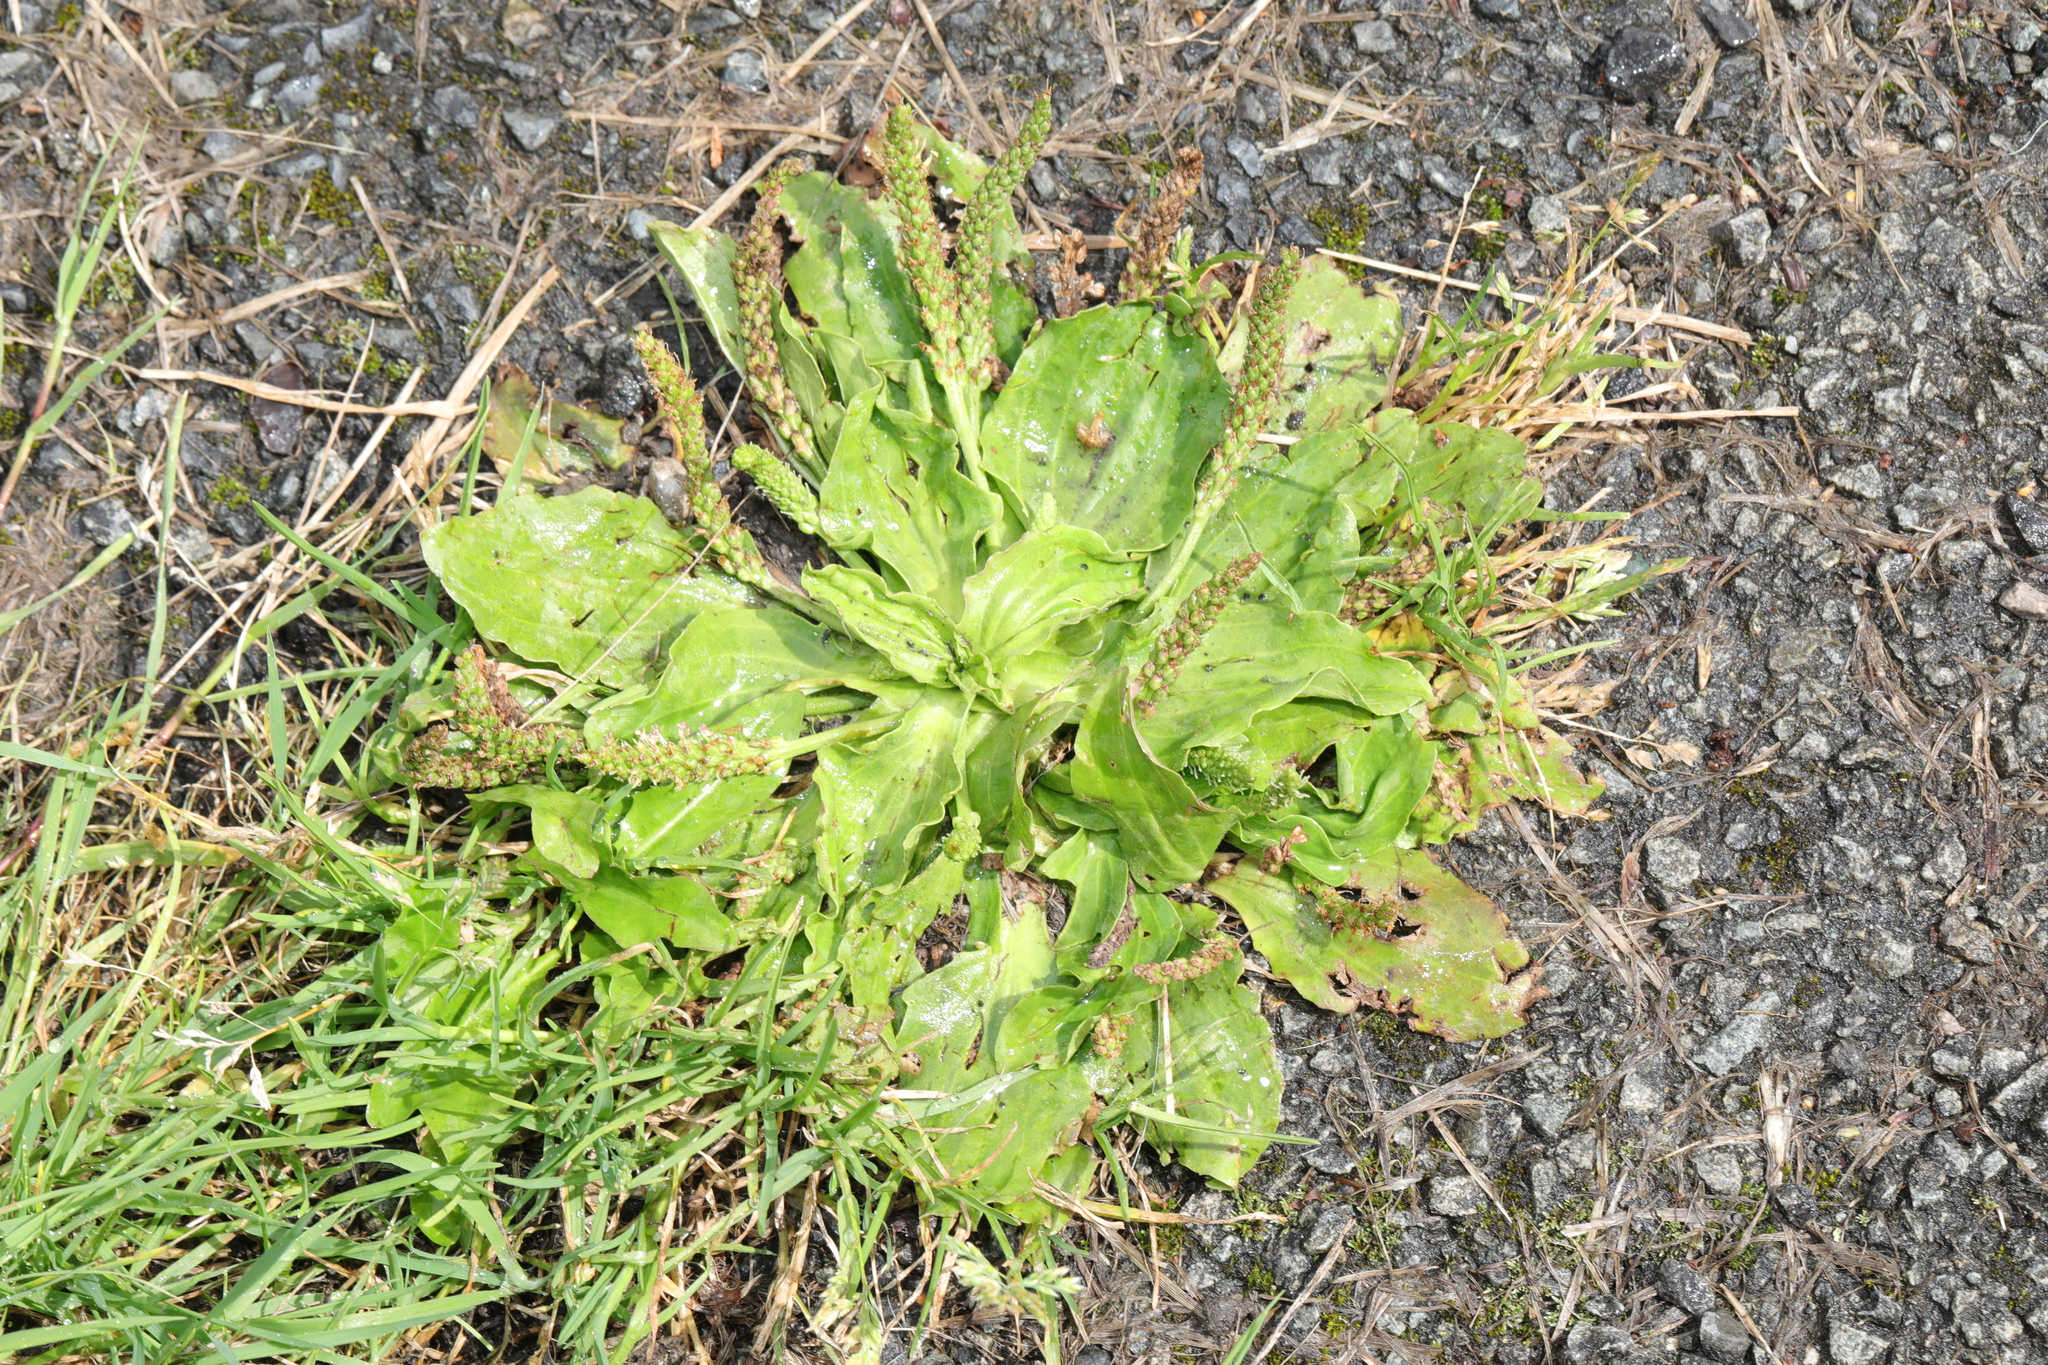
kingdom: Plantae
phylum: Tracheophyta
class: Magnoliopsida
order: Lamiales
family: Plantaginaceae
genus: Plantago
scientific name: Plantago major
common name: Common plantain
